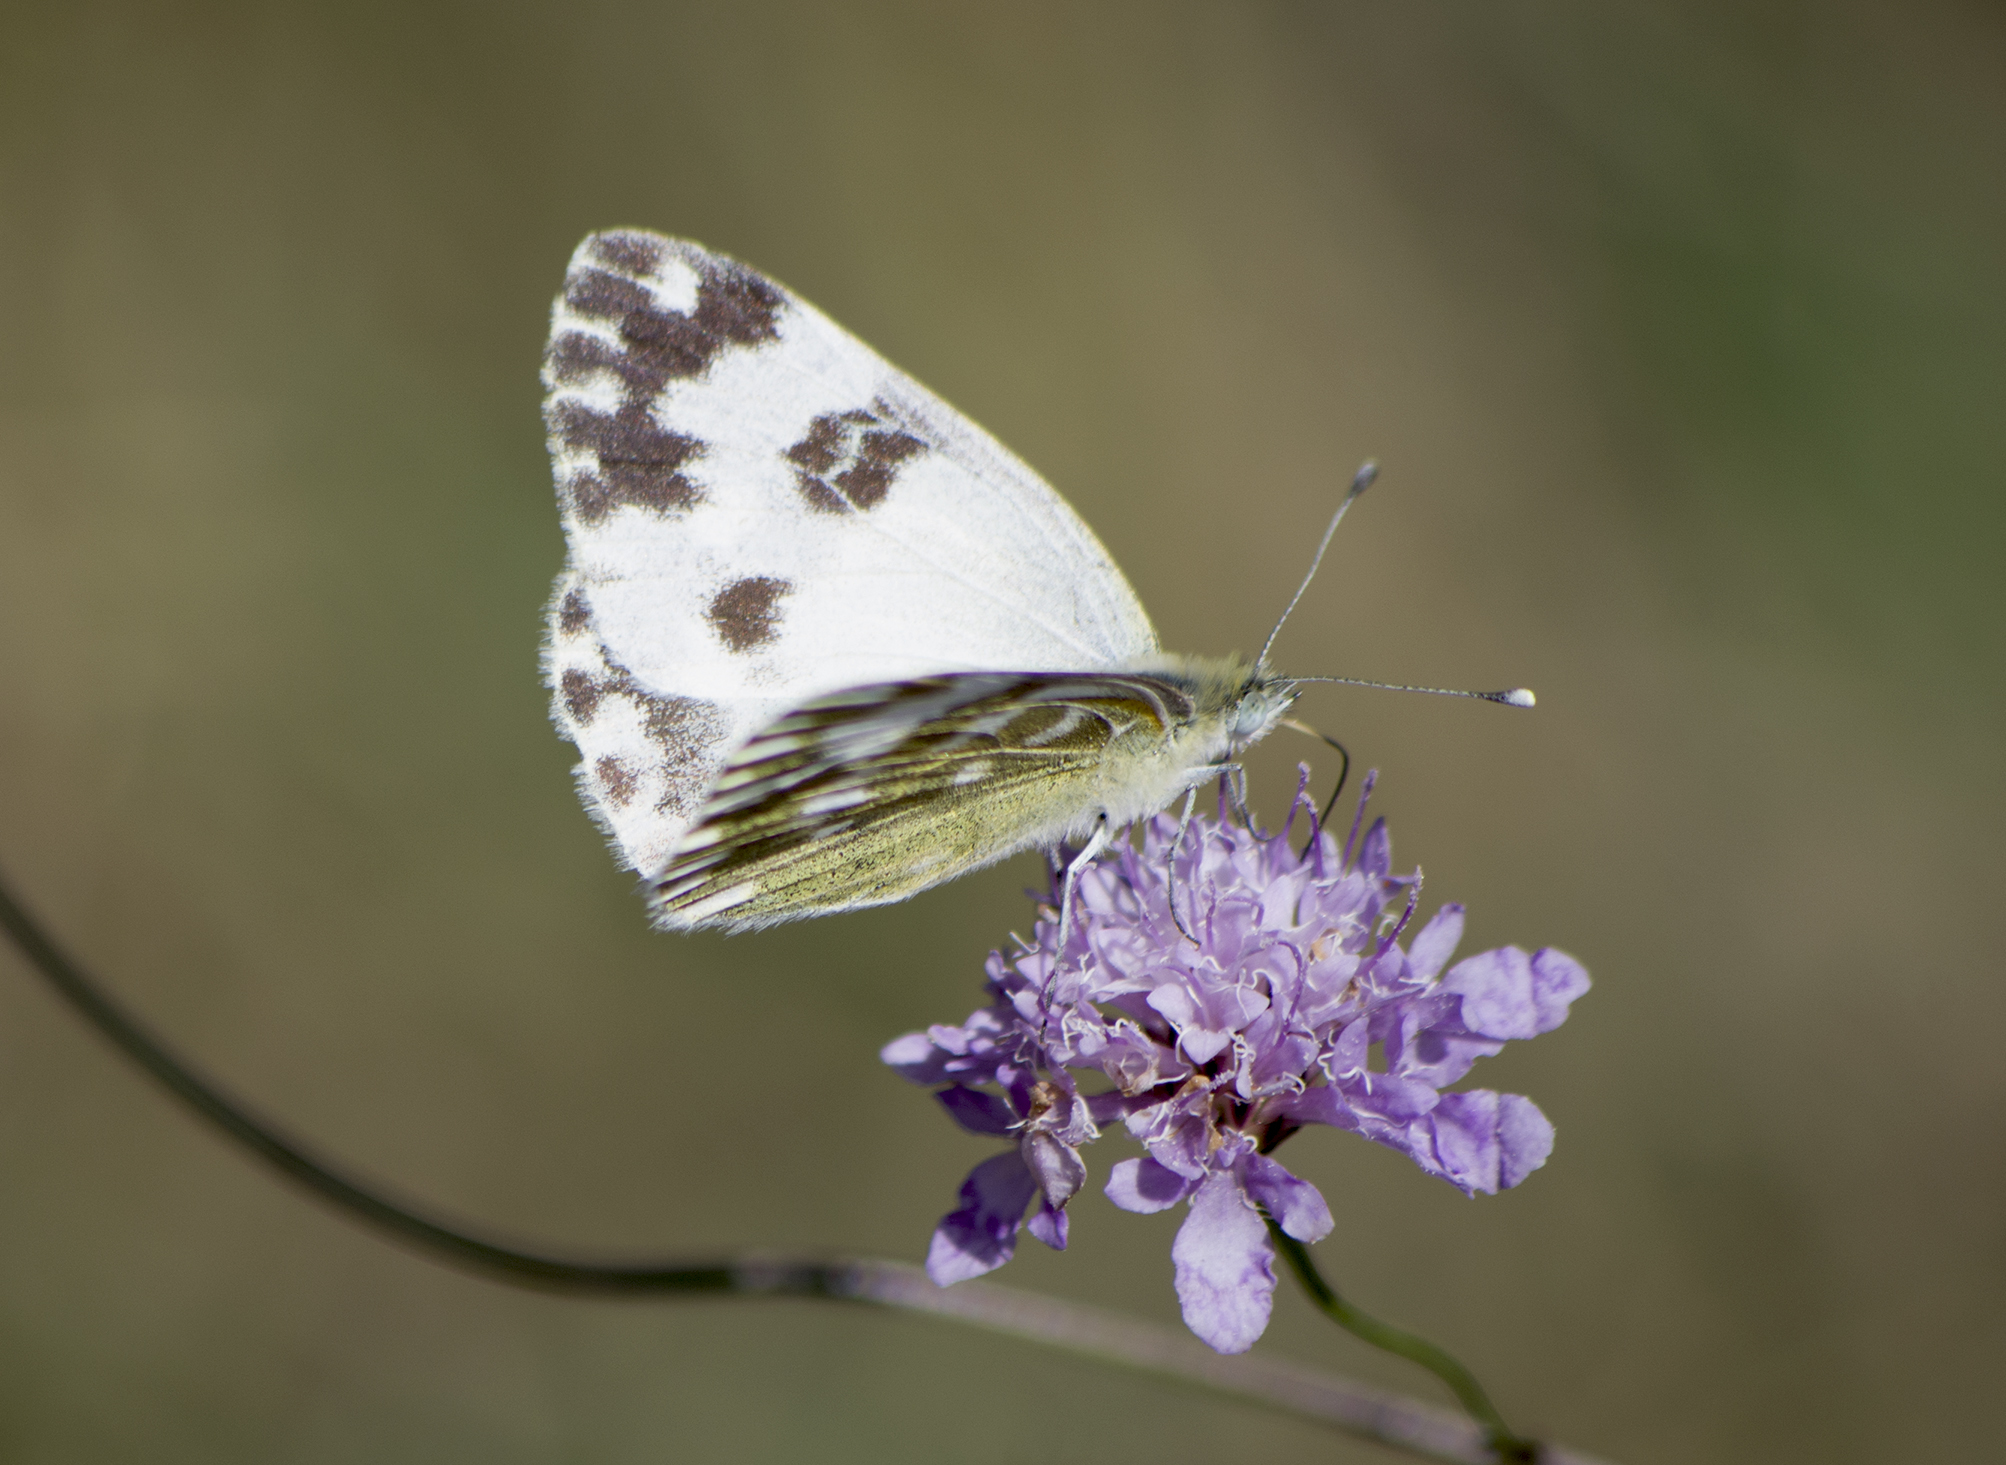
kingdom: Animalia
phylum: Arthropoda
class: Insecta
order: Lepidoptera
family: Pieridae
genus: Pontia
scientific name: Pontia edusa
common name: Eastern bath white
